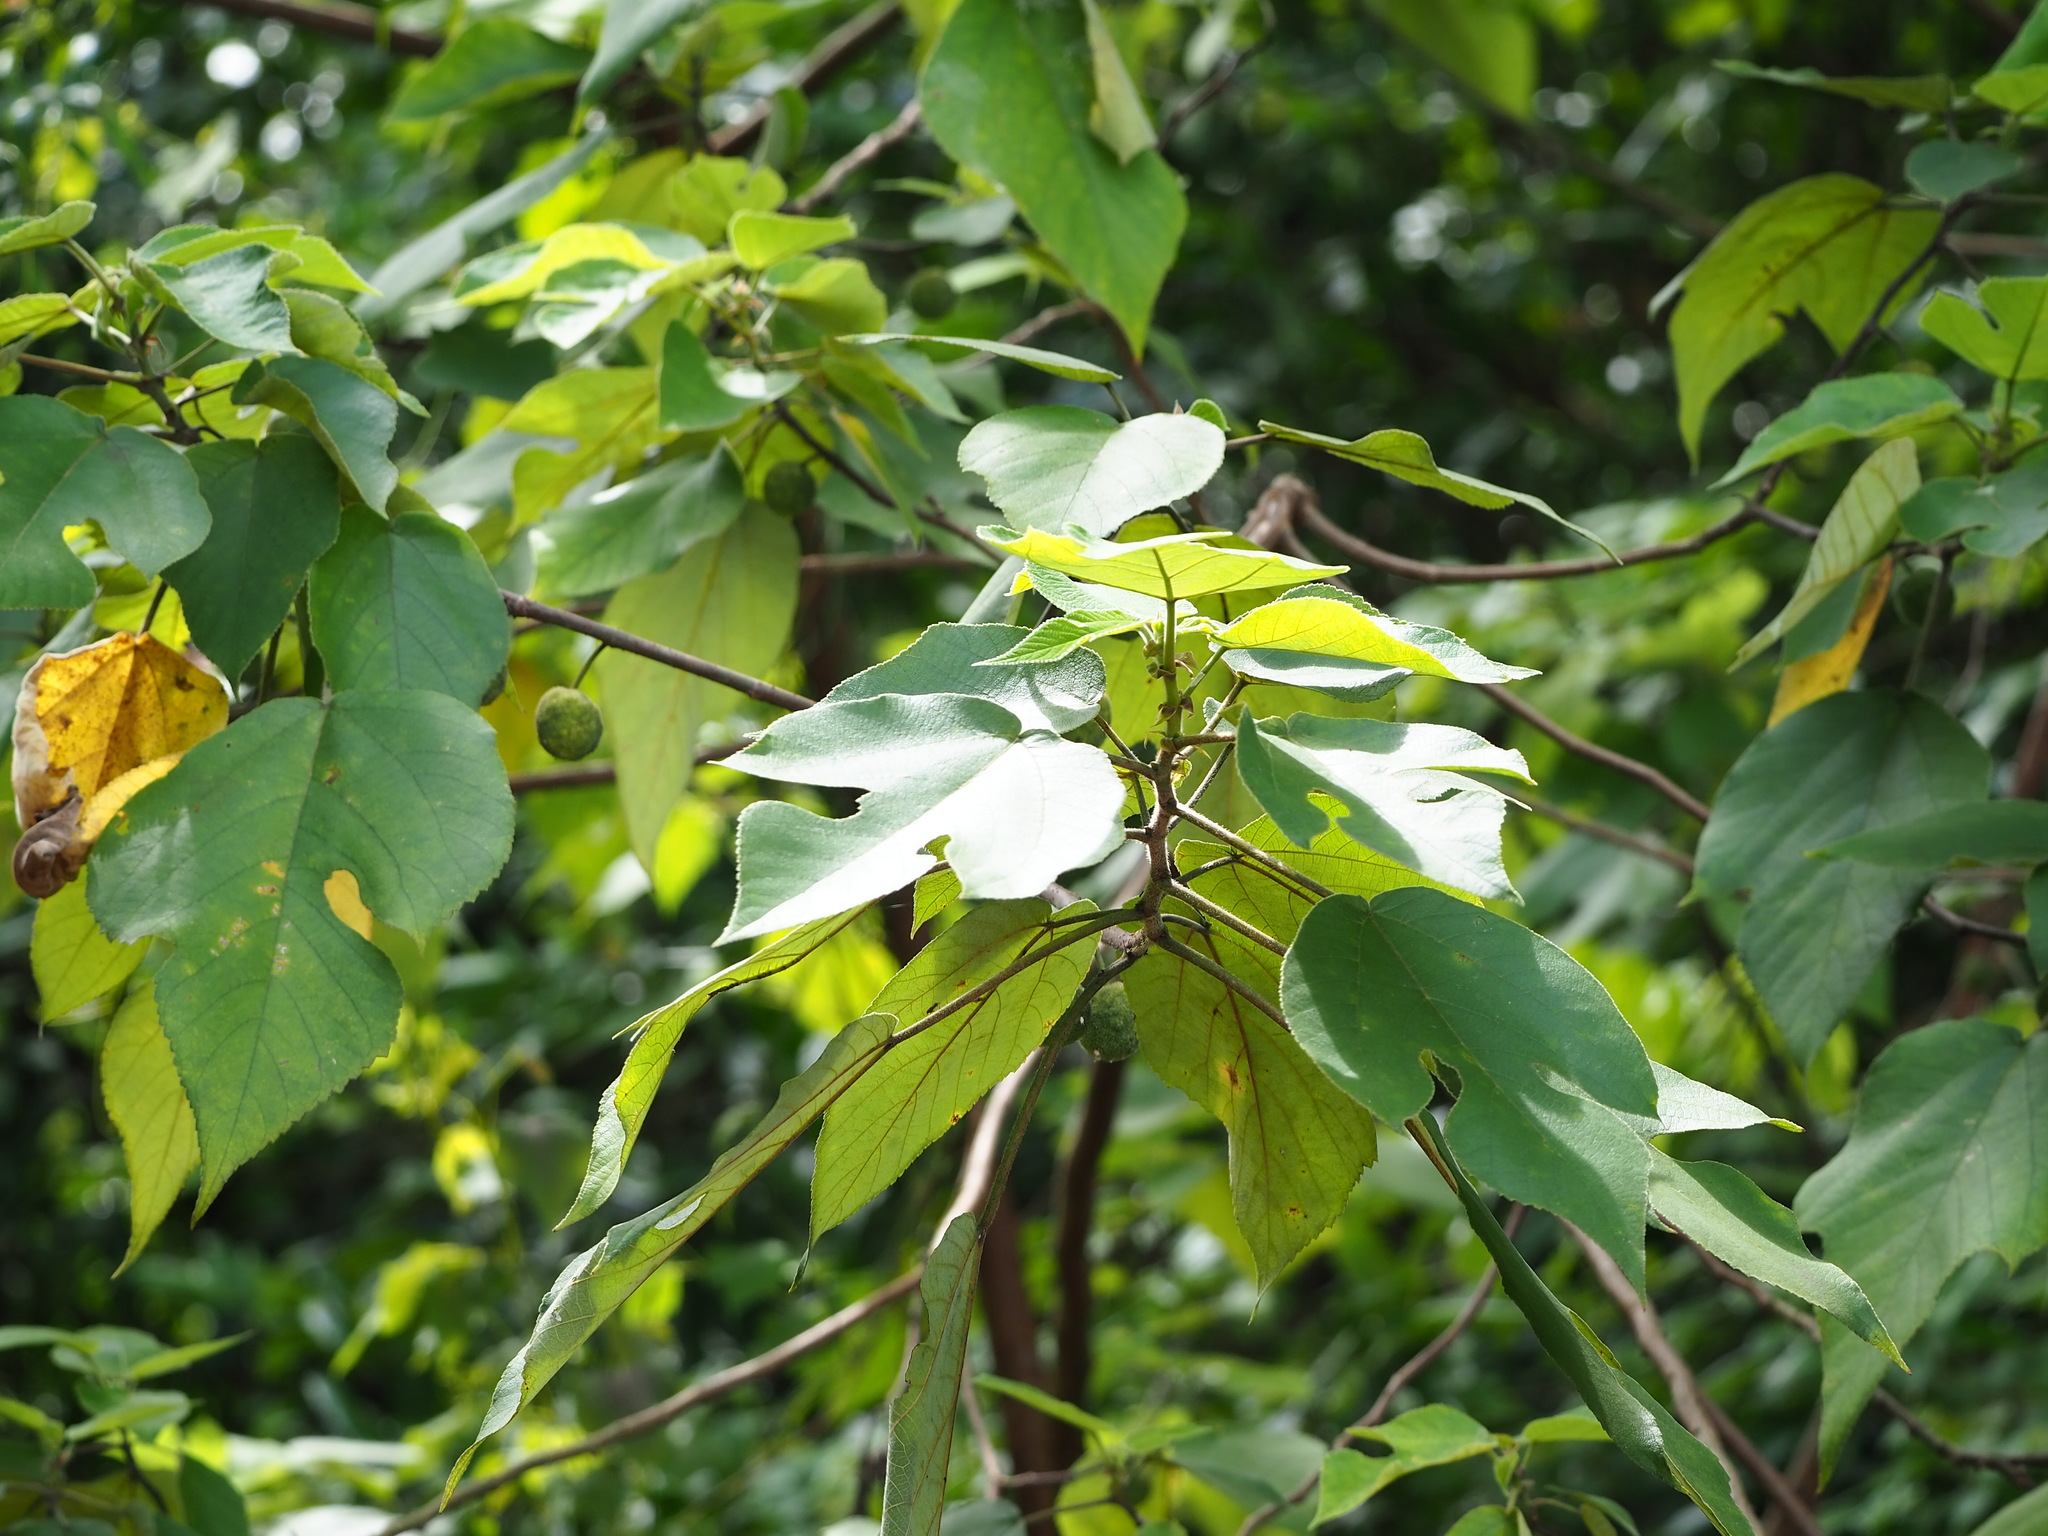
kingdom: Plantae
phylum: Tracheophyta
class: Magnoliopsida
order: Rosales
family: Moraceae
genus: Broussonetia
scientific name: Broussonetia papyrifera
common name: Paper mulberry
